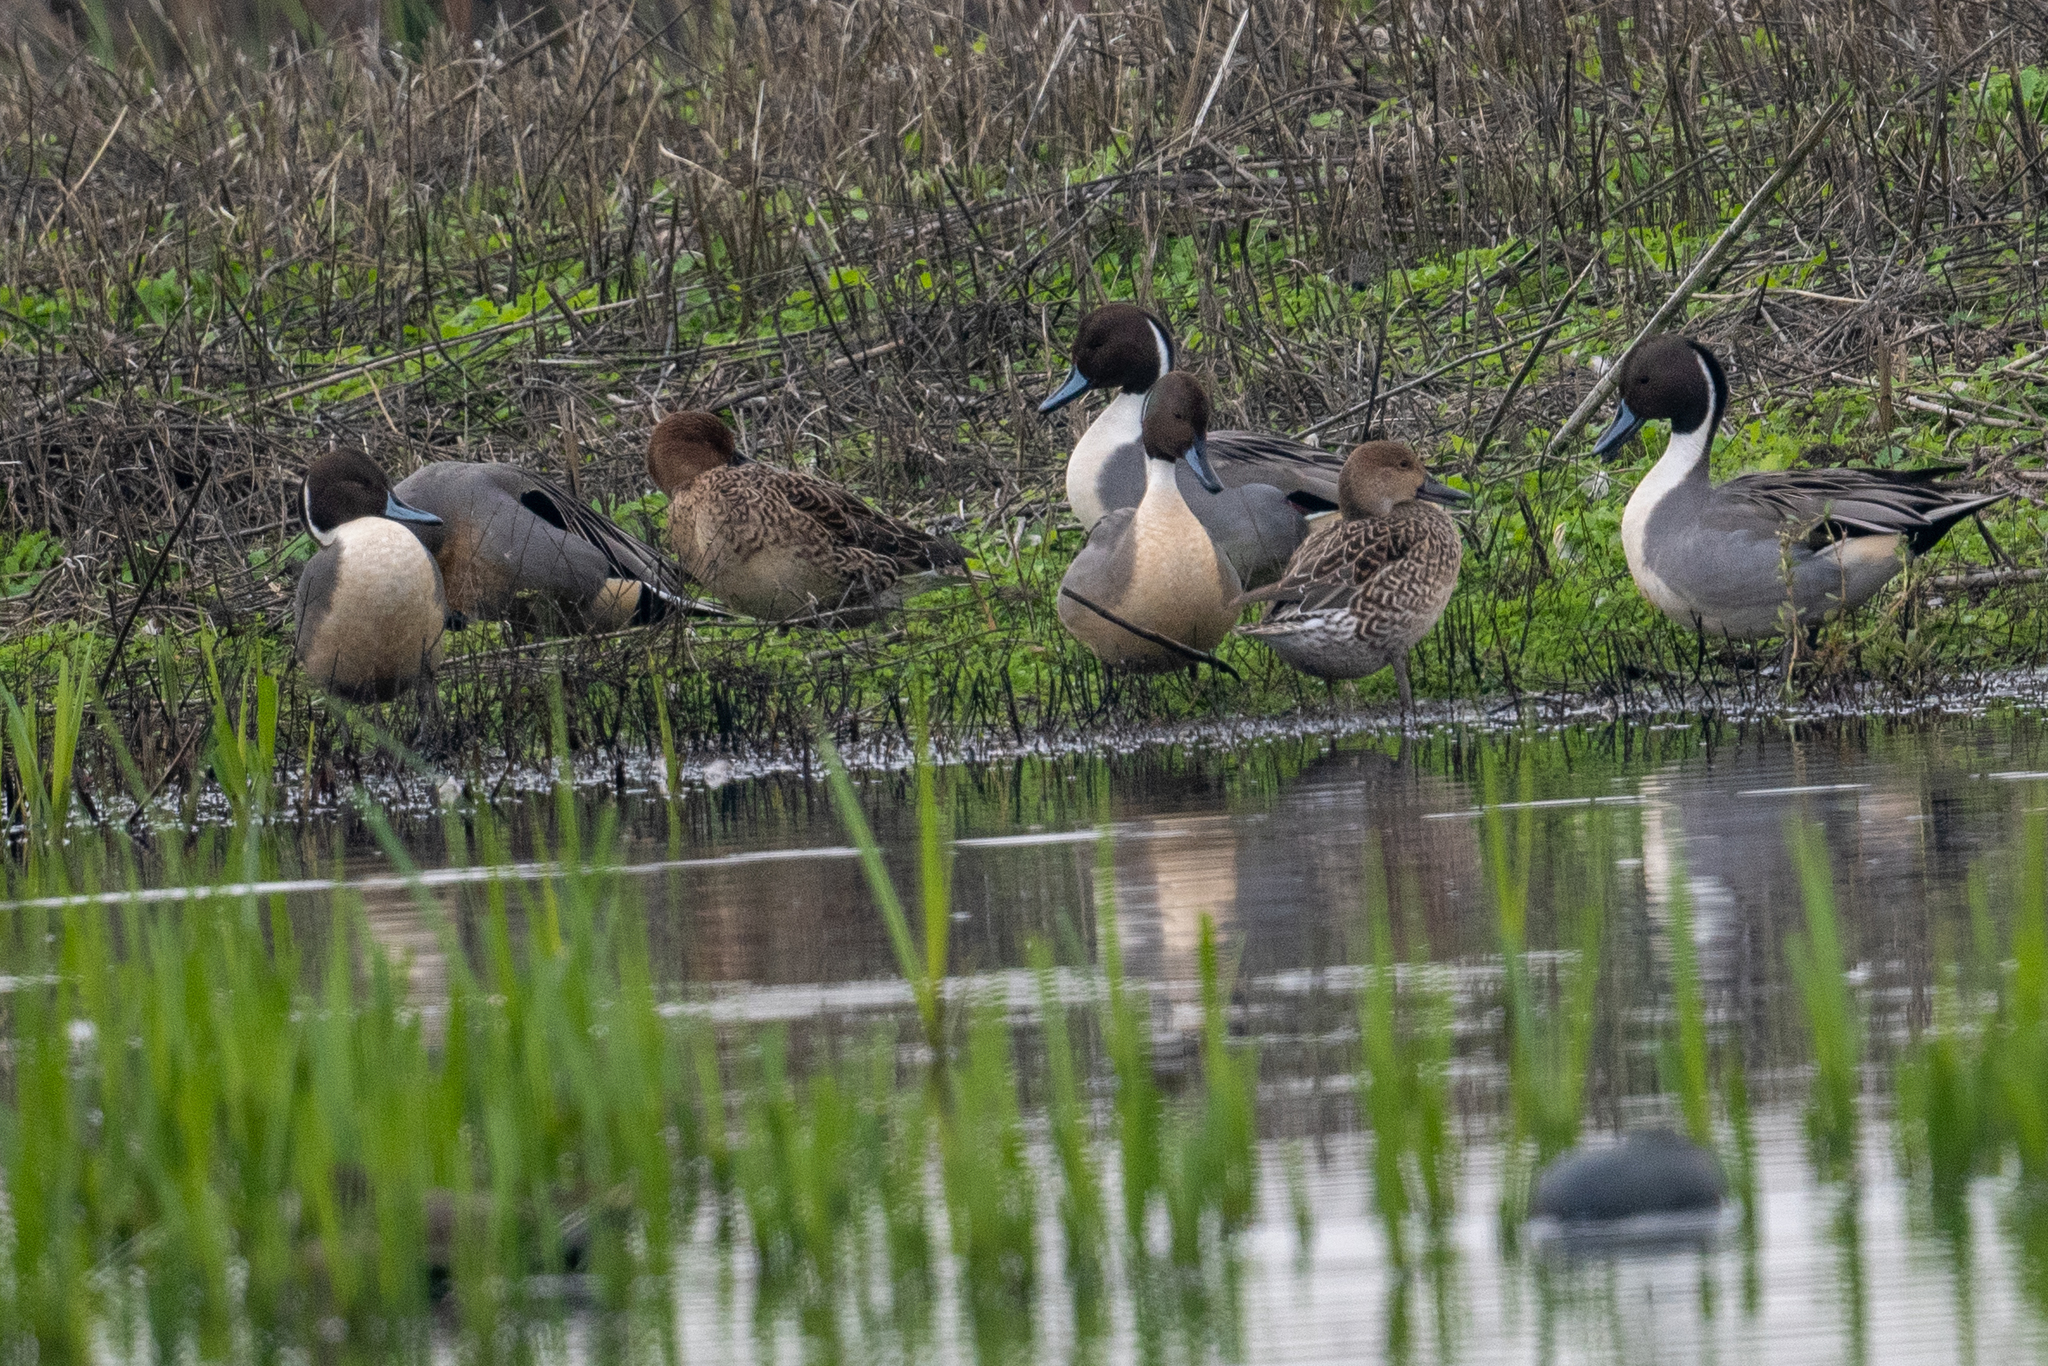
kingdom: Animalia
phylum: Chordata
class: Aves
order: Anseriformes
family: Anatidae
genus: Anas
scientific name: Anas acuta
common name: Northern pintail
